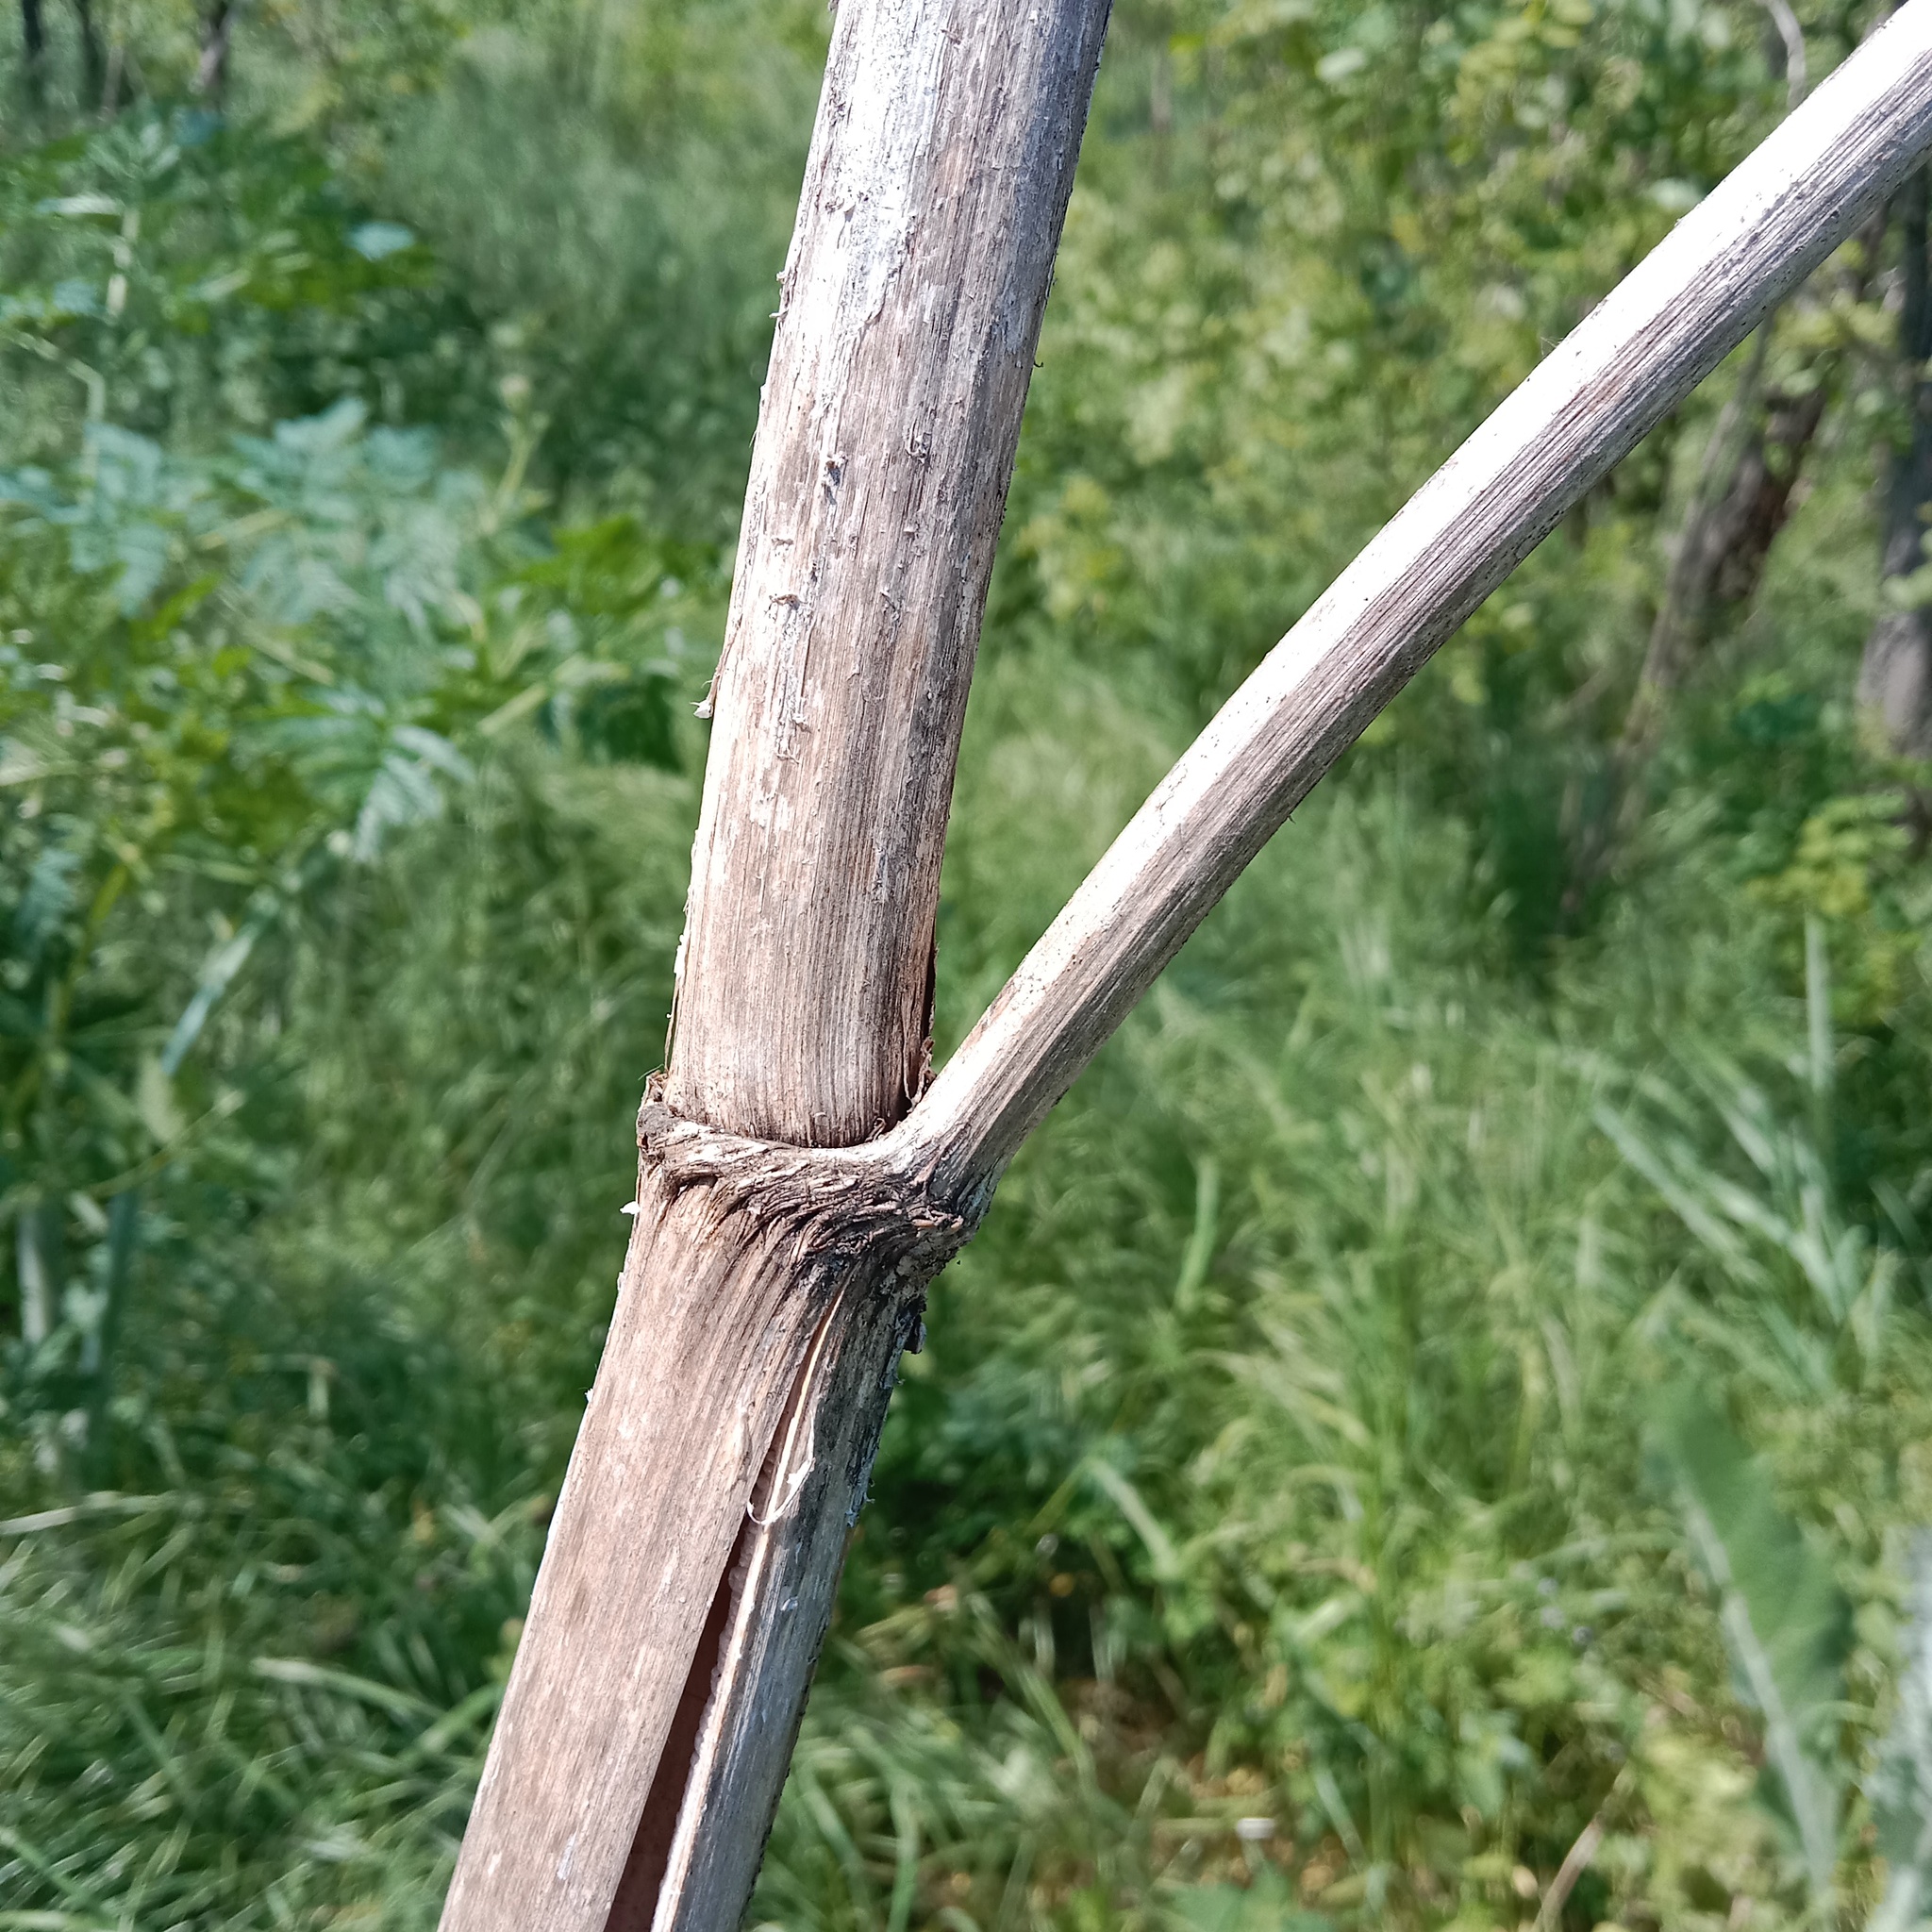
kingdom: Plantae
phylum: Tracheophyta
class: Magnoliopsida
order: Apiales
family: Apiaceae
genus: Conium
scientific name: Conium maculatum
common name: Hemlock
